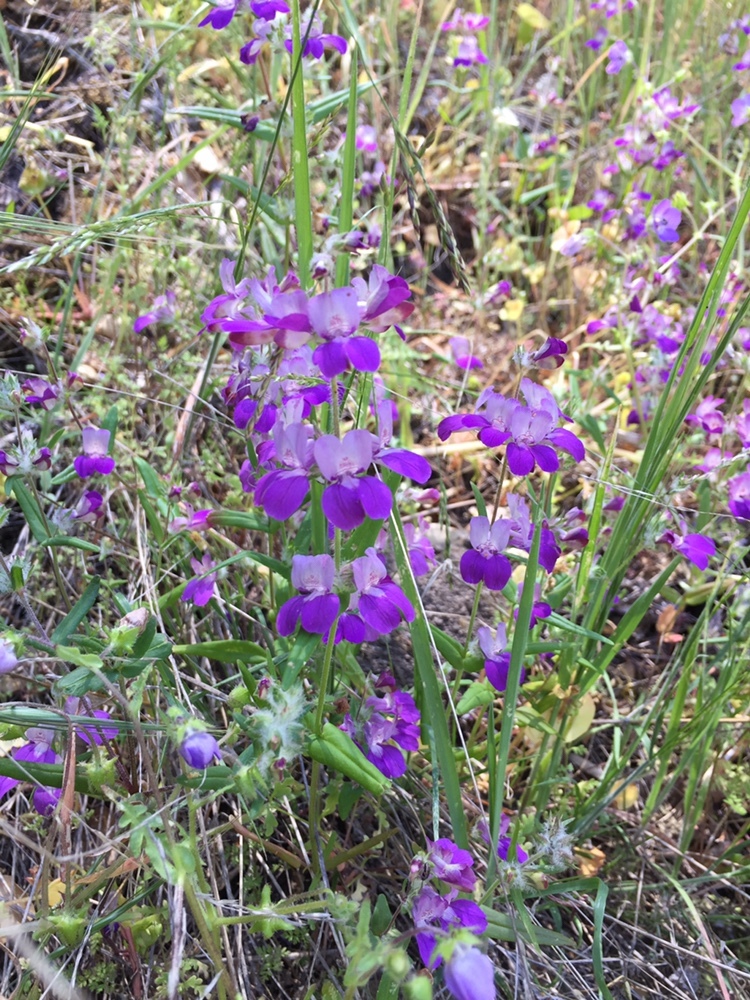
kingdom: Plantae
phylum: Tracheophyta
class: Magnoliopsida
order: Lamiales
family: Plantaginaceae
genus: Collinsia
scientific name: Collinsia heterophylla
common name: Chinese-houses
